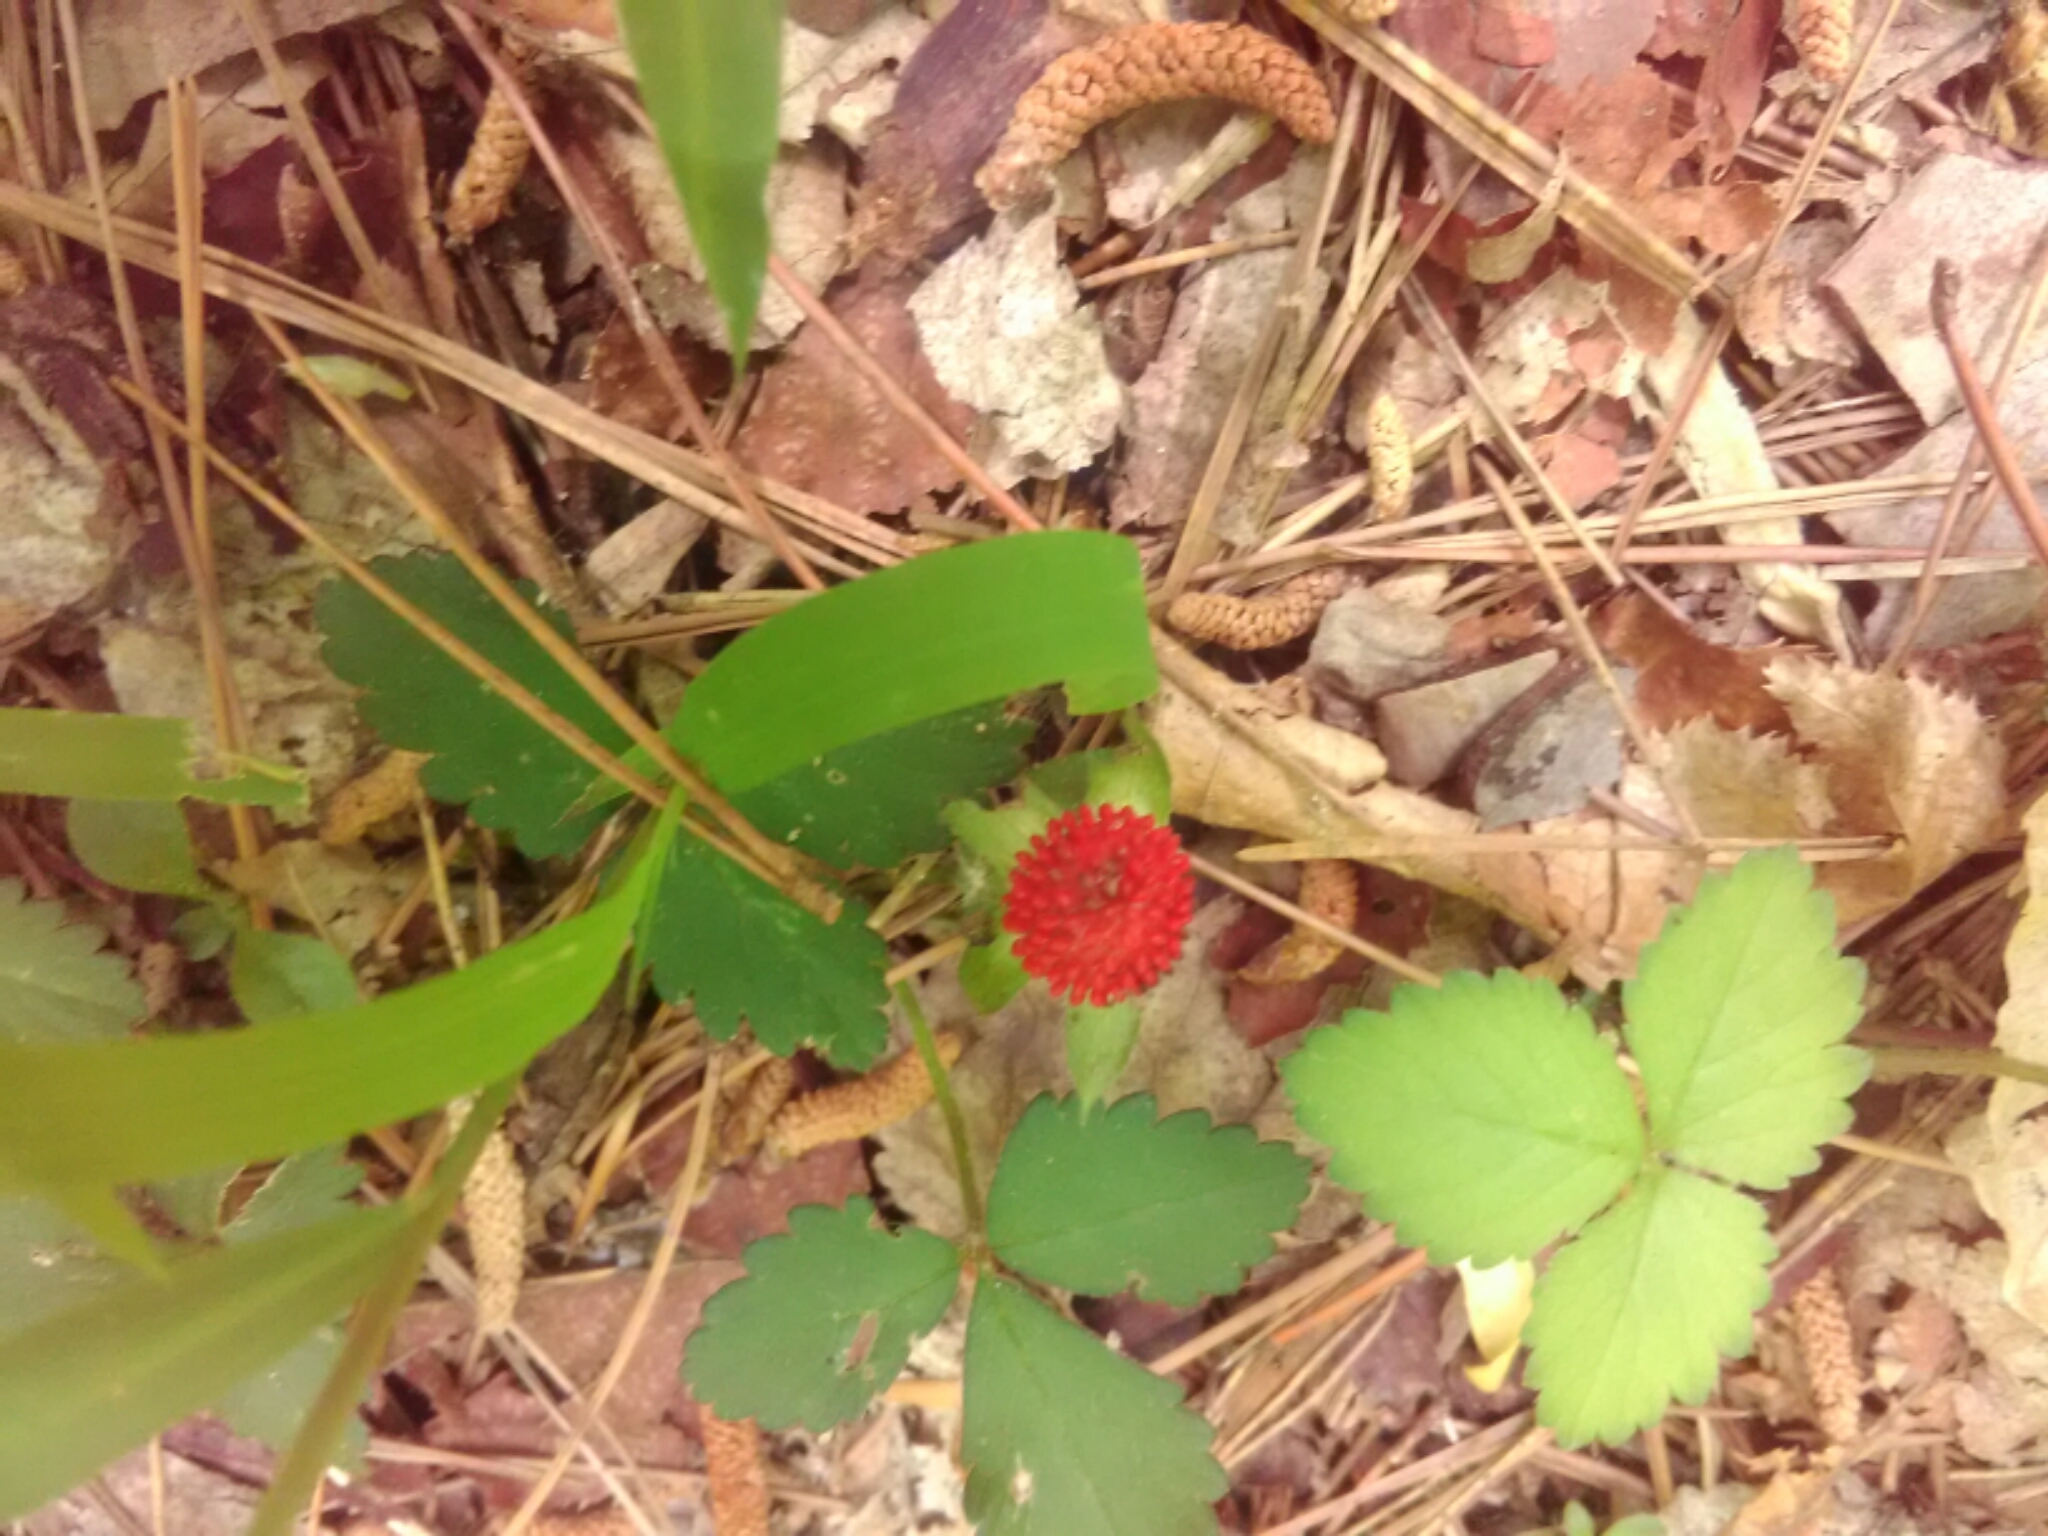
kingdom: Plantae
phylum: Tracheophyta
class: Magnoliopsida
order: Rosales
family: Rosaceae
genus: Potentilla
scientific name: Potentilla indica
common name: Yellow-flowered strawberry
